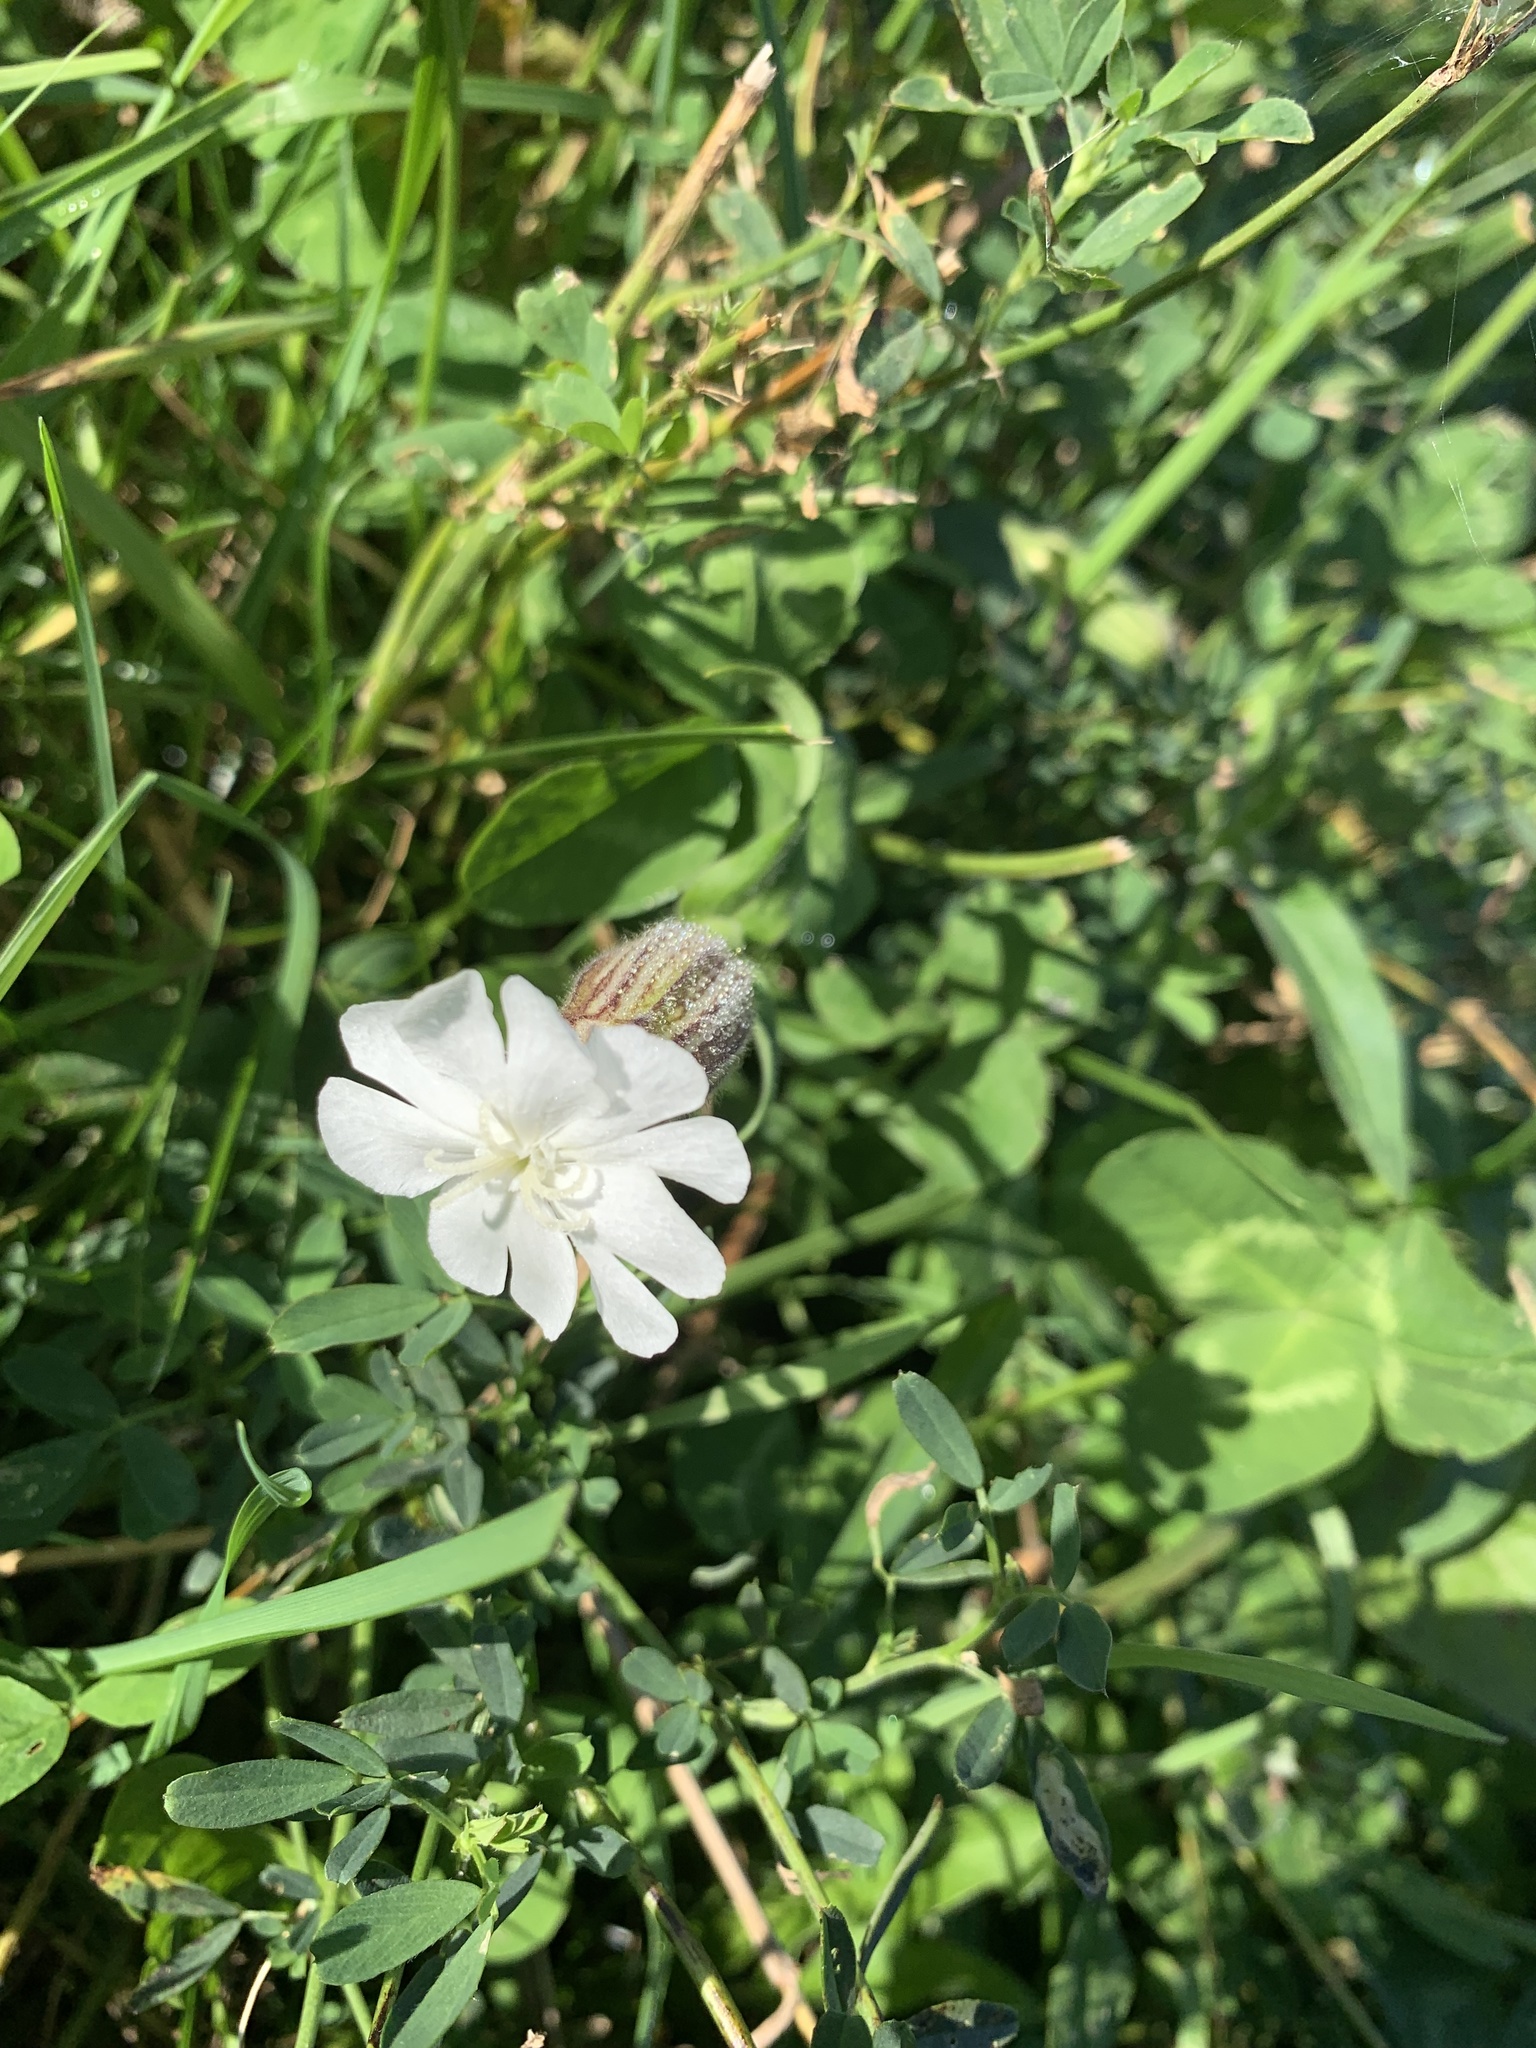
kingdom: Plantae
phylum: Tracheophyta
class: Magnoliopsida
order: Caryophyllales
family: Caryophyllaceae
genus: Silene
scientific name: Silene latifolia
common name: White campion
